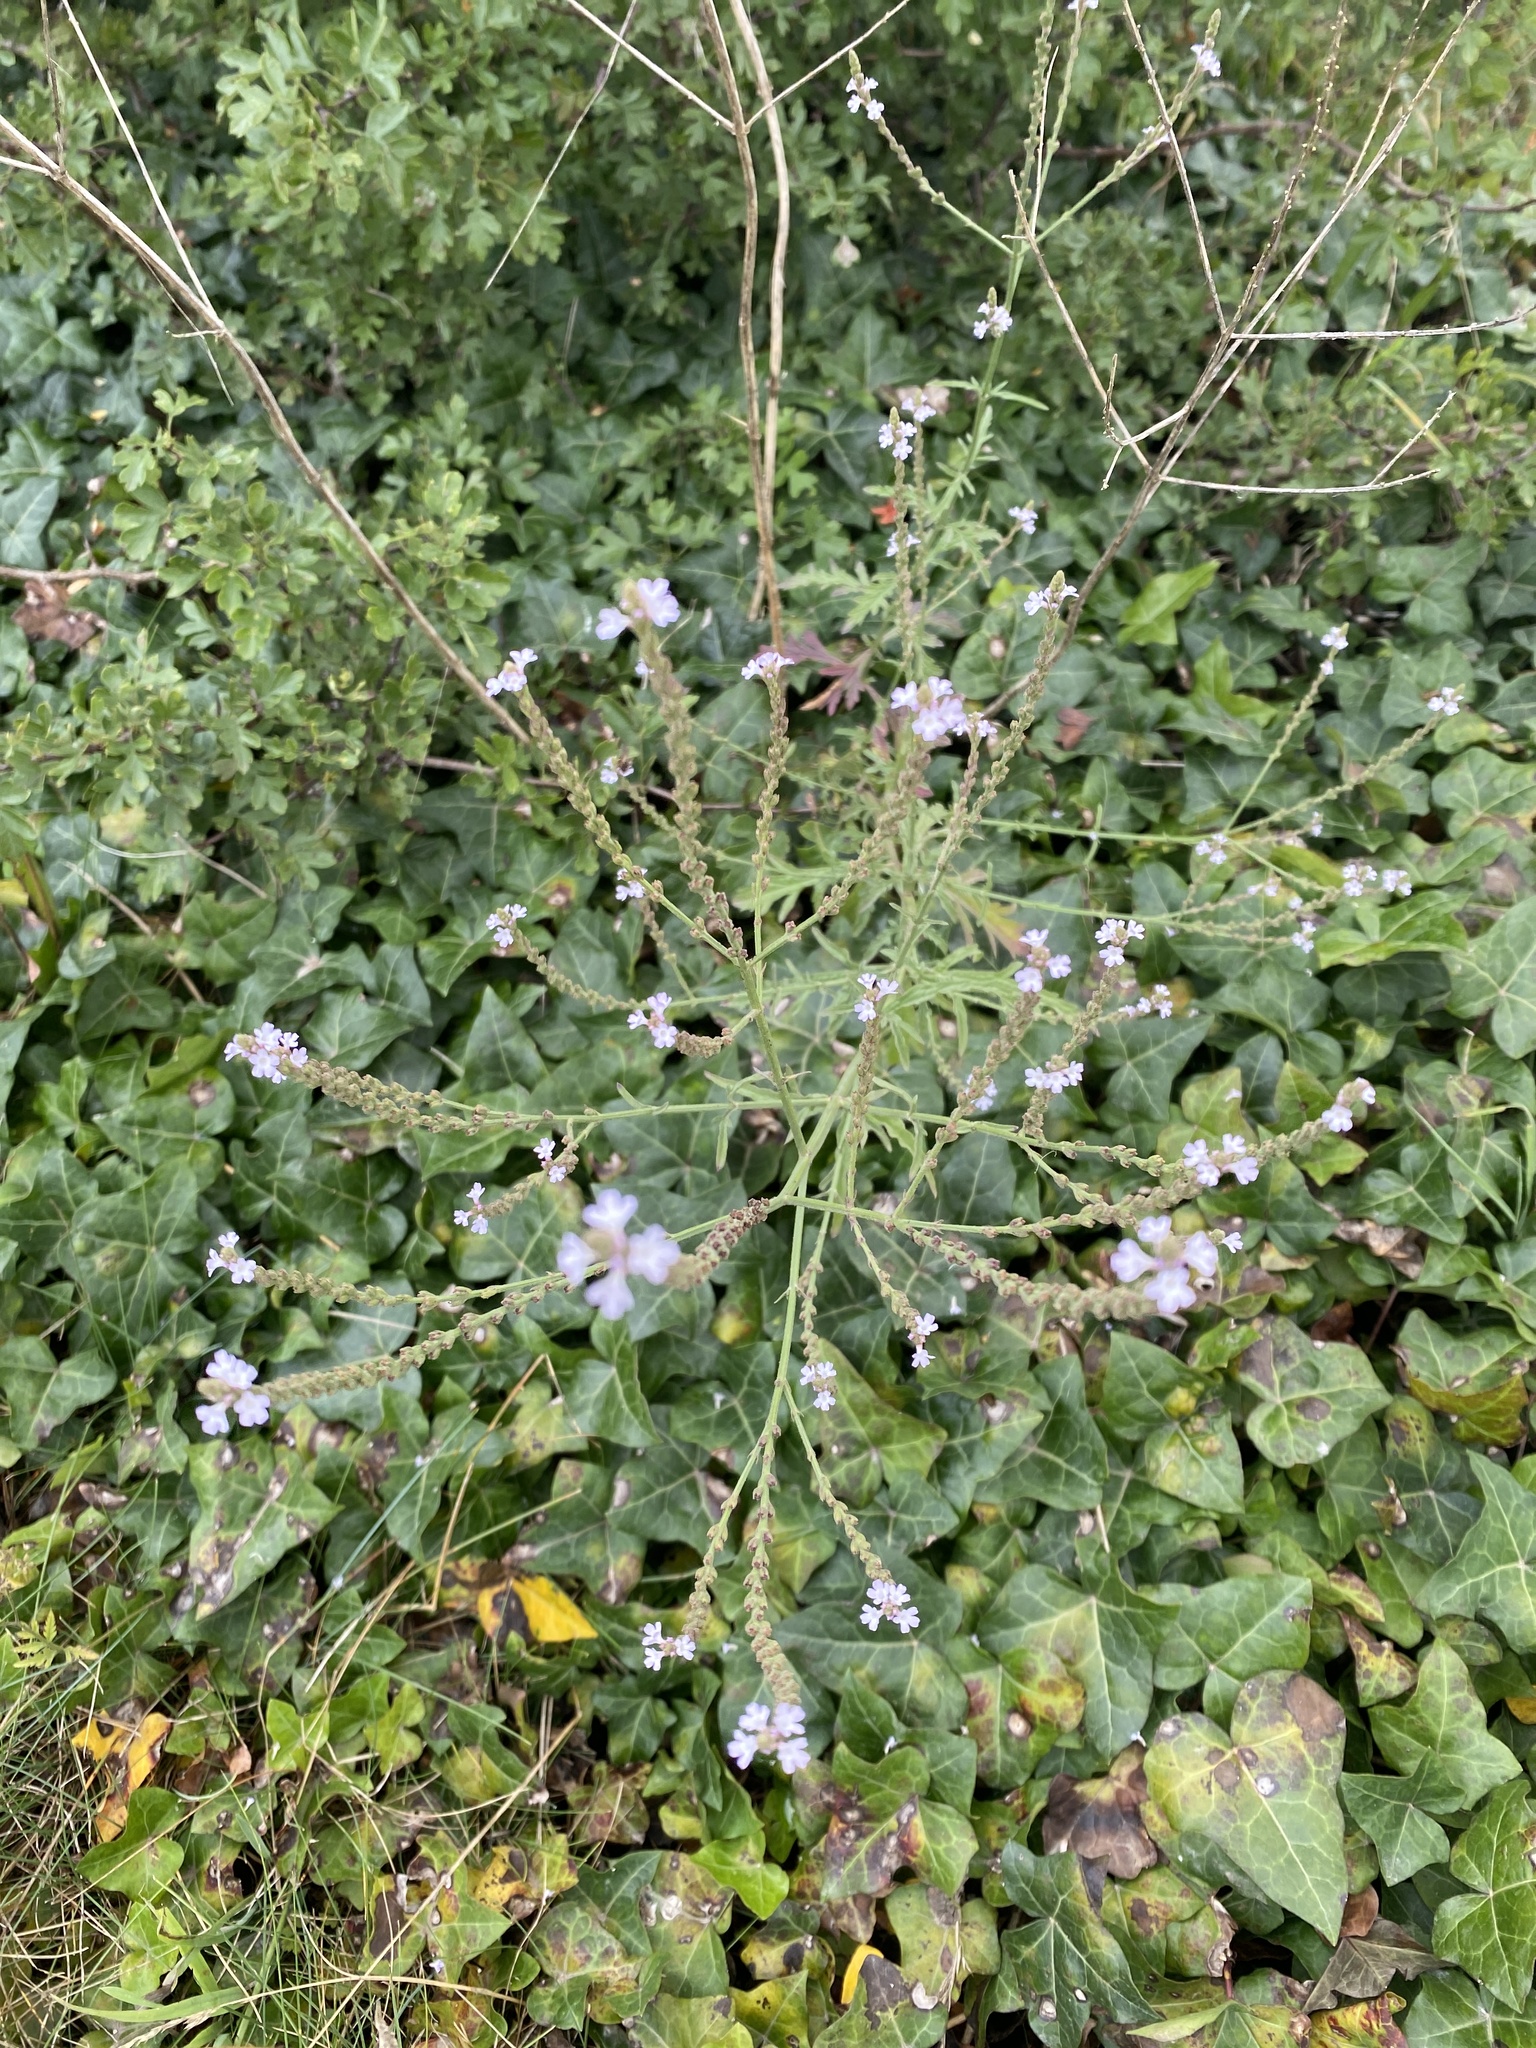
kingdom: Plantae
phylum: Tracheophyta
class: Magnoliopsida
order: Lamiales
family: Verbenaceae
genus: Verbena
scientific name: Verbena officinalis
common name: Vervain
